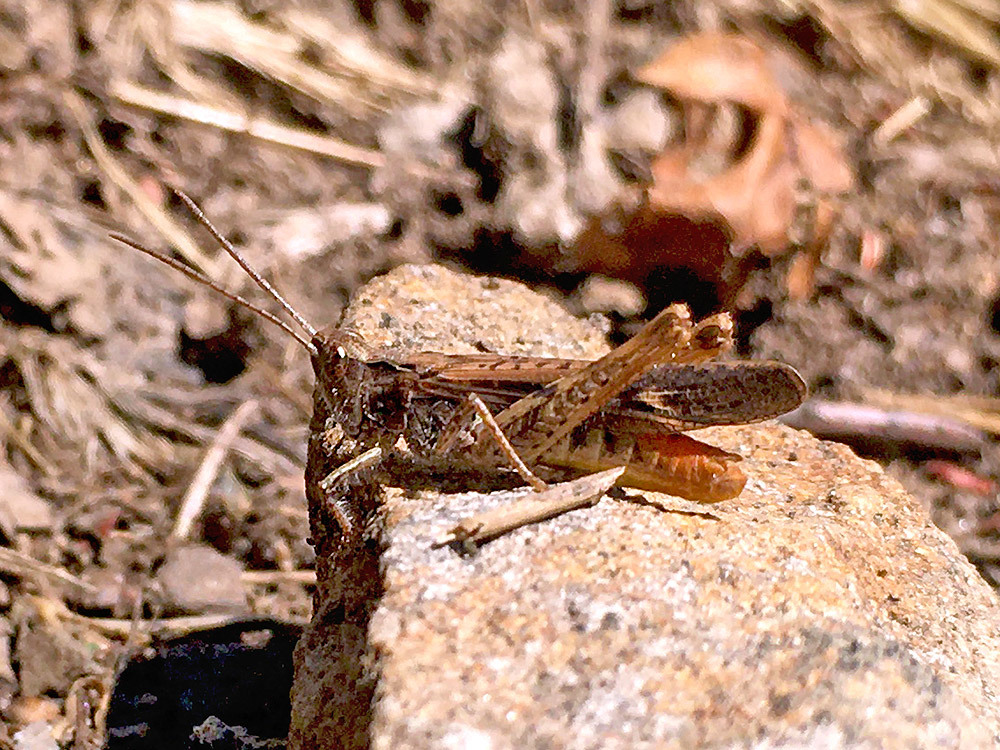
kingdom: Animalia
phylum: Arthropoda
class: Insecta
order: Orthoptera
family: Acrididae
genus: Chorthippus
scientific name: Chorthippus brunneus
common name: Field grasshopper
